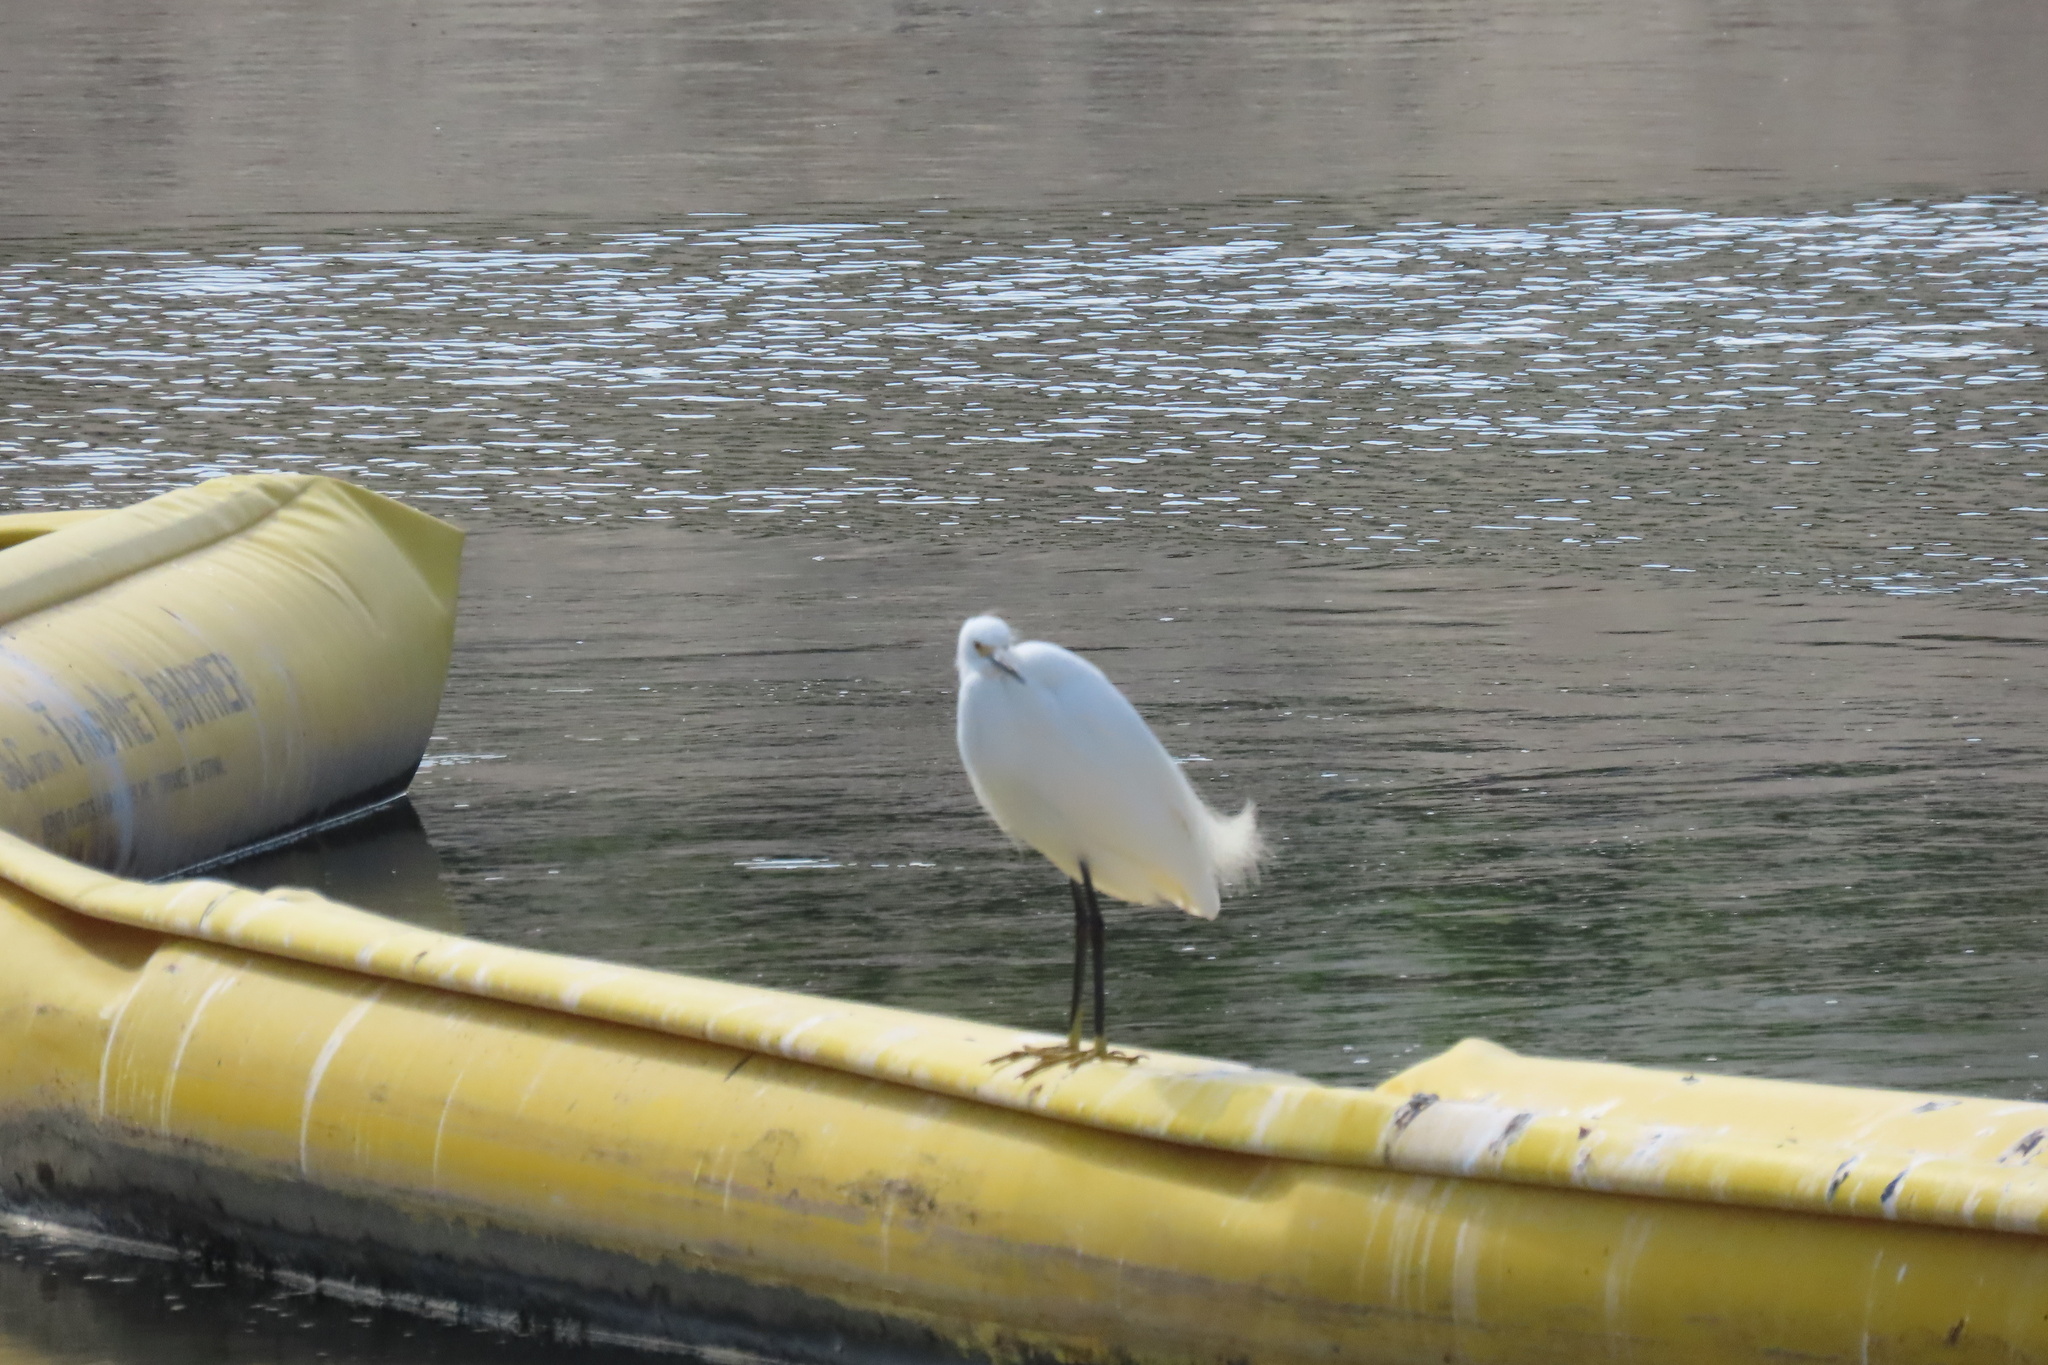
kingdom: Animalia
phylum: Chordata
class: Aves
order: Pelecaniformes
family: Ardeidae
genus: Egretta
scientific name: Egretta thula
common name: Snowy egret
